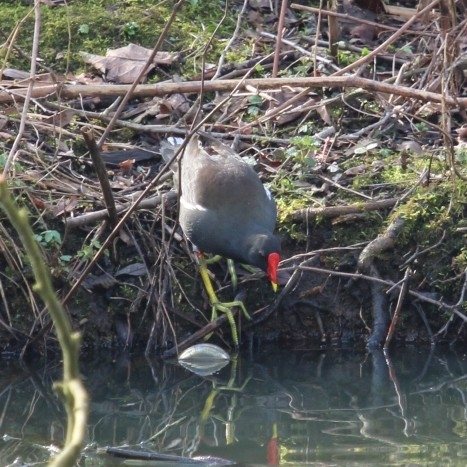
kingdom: Animalia
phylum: Chordata
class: Aves
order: Gruiformes
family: Rallidae
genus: Gallinula
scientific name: Gallinula chloropus
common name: Common moorhen
